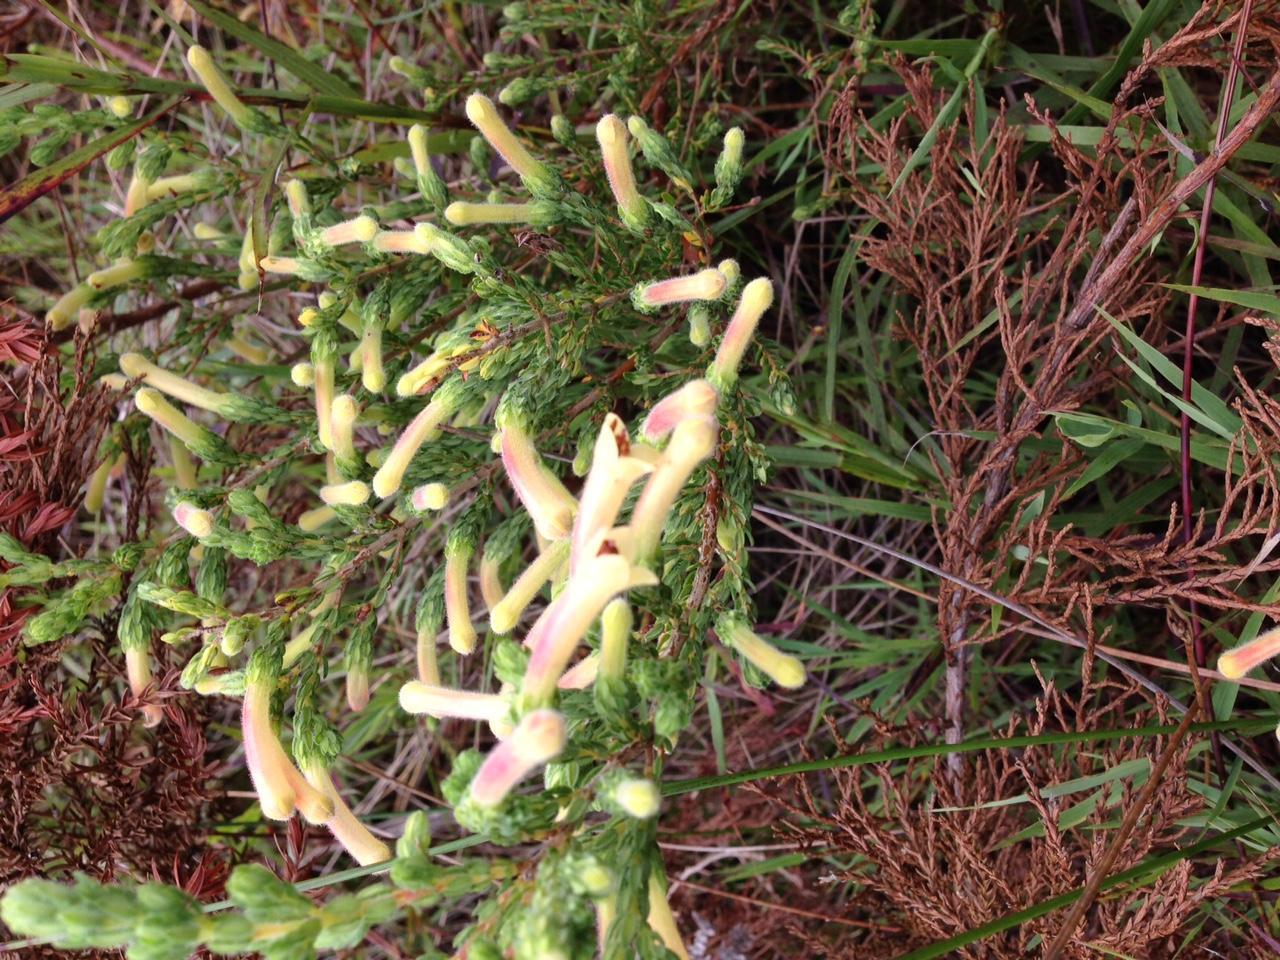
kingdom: Plantae
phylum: Tracheophyta
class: Magnoliopsida
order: Ericales
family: Ericaceae
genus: Erica
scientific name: Erica curviflora
